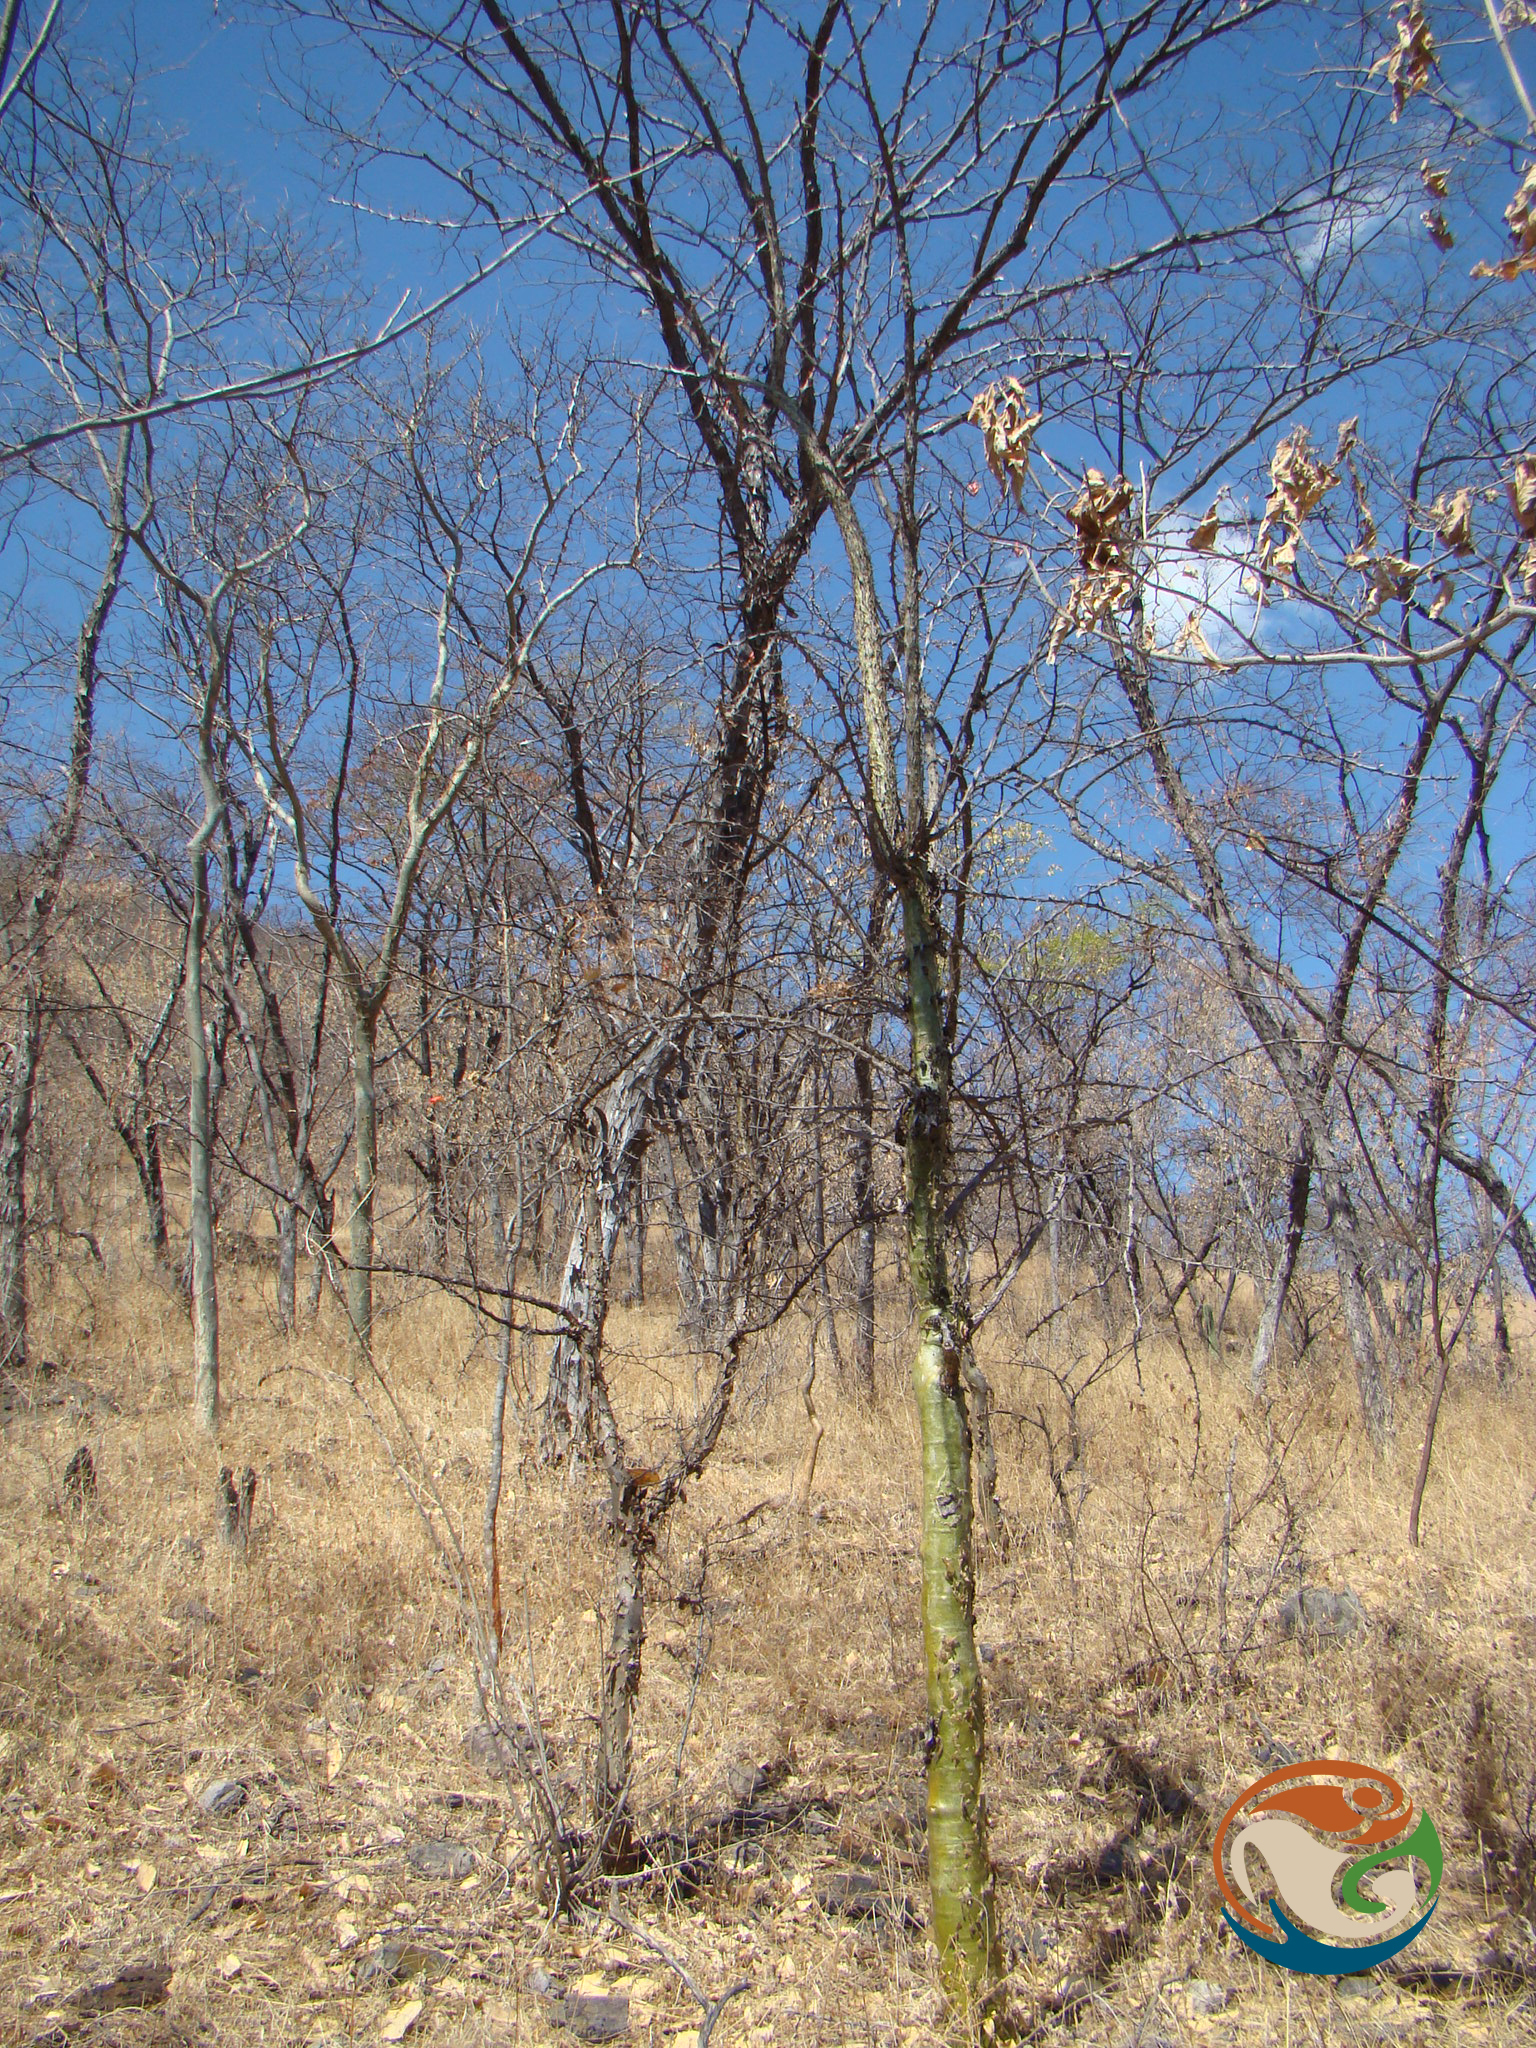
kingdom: Plantae
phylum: Tracheophyta
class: Magnoliopsida
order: Ericales
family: Fouquieriaceae
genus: Fouquieria
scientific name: Fouquieria formosa
